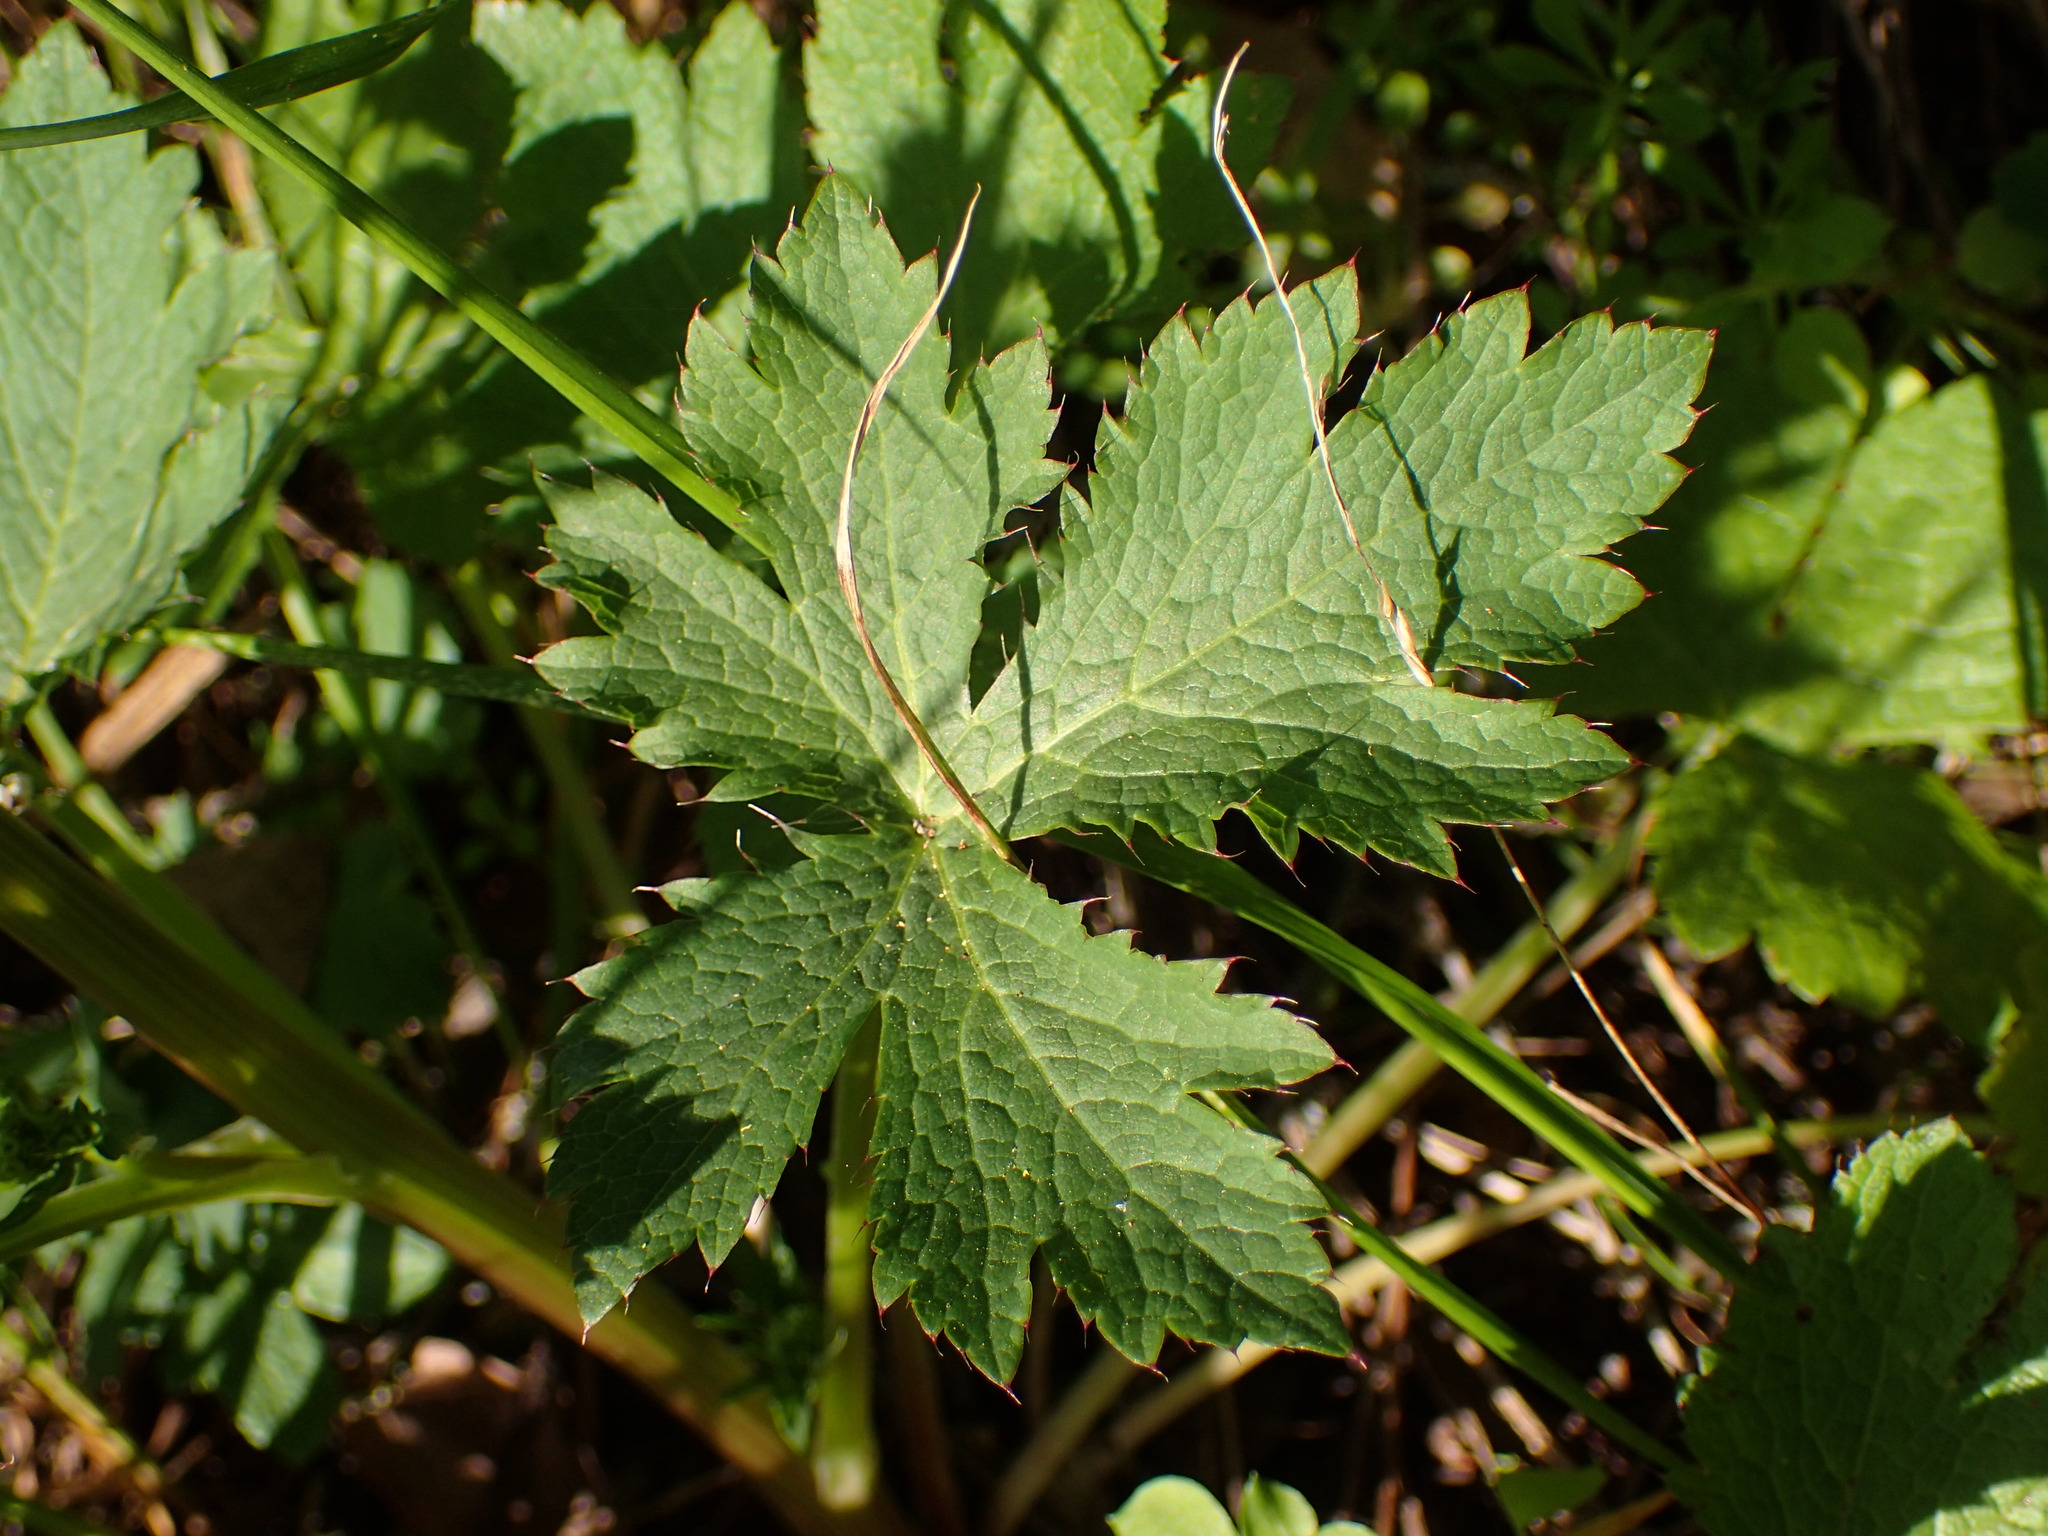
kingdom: Plantae
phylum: Tracheophyta
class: Magnoliopsida
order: Apiales
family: Apiaceae
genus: Sanicula
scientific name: Sanicula crassicaulis
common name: Western snakeroot
